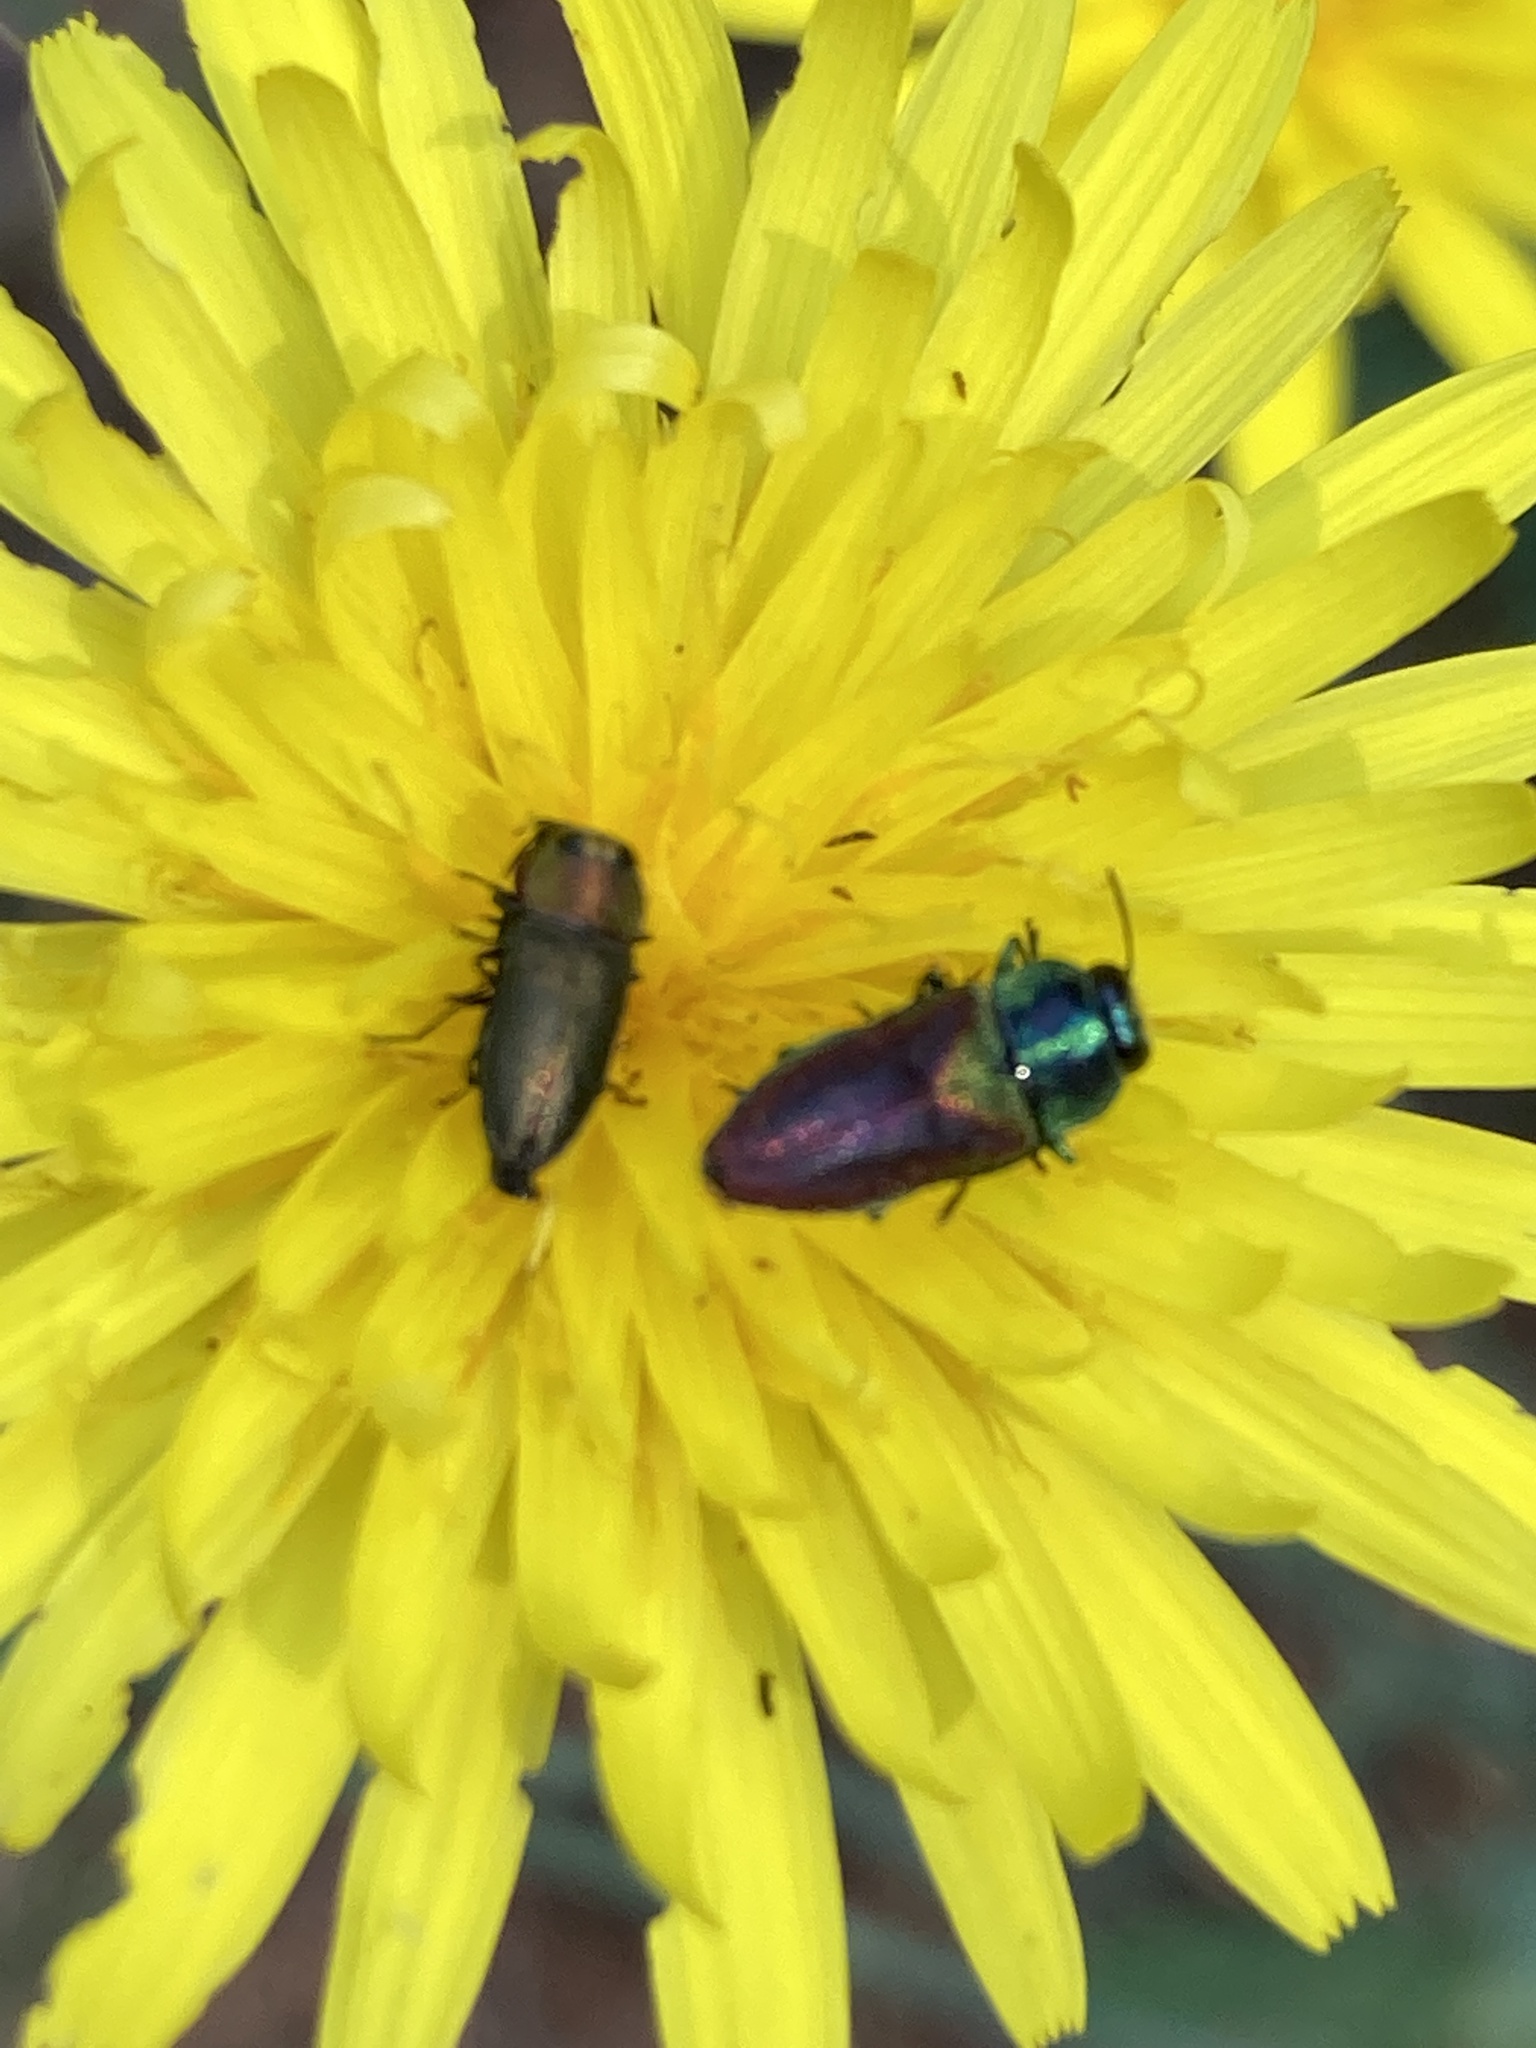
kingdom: Animalia
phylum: Arthropoda
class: Insecta
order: Coleoptera
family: Buprestidae
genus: Anthaxia
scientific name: Anthaxia passerinii
